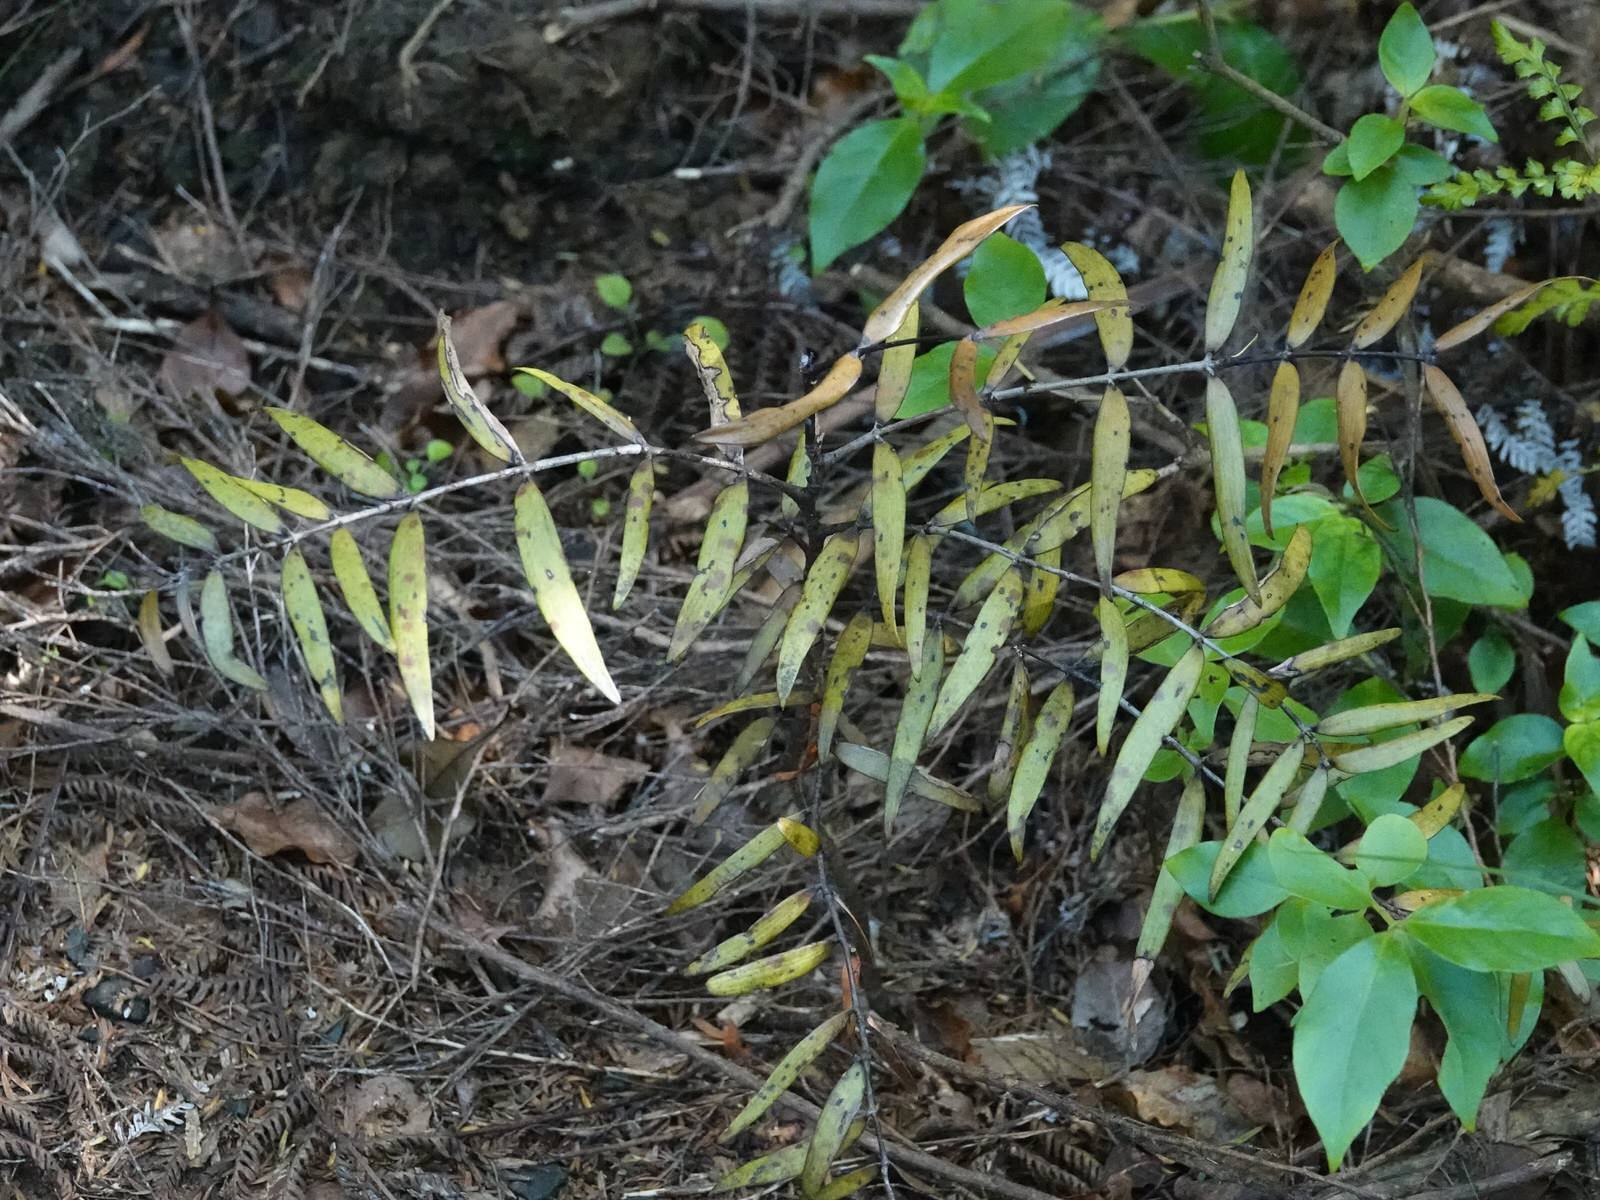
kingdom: Plantae
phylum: Tracheophyta
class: Pinopsida
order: Pinales
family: Araucariaceae
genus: Agathis
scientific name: Agathis australis
